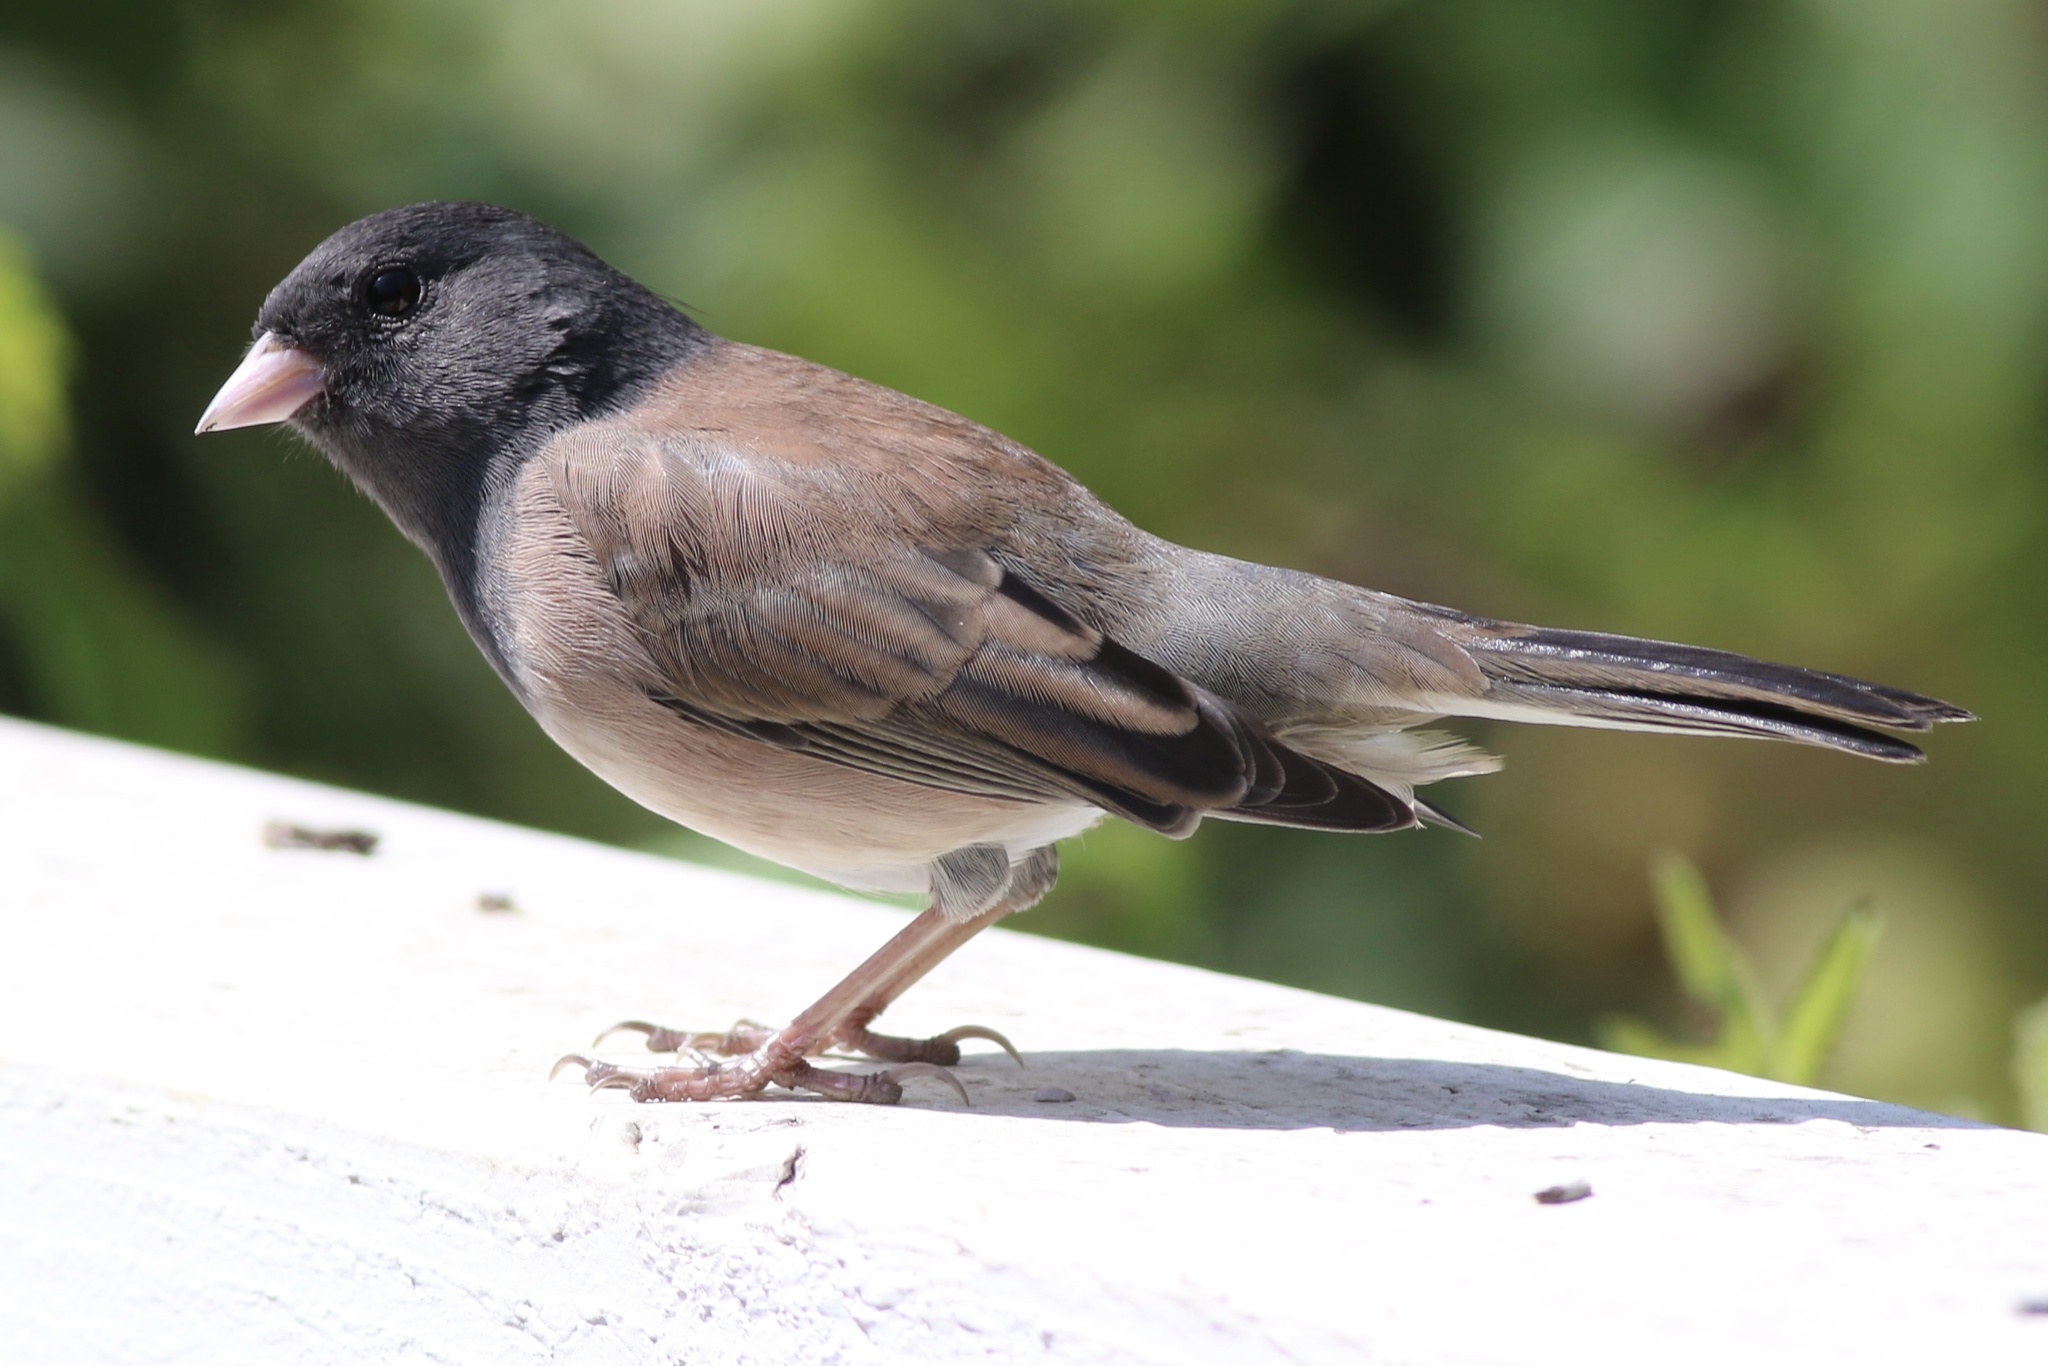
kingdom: Animalia
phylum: Chordata
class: Aves
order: Passeriformes
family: Passerellidae
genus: Junco
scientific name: Junco hyemalis
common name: Dark-eyed junco
